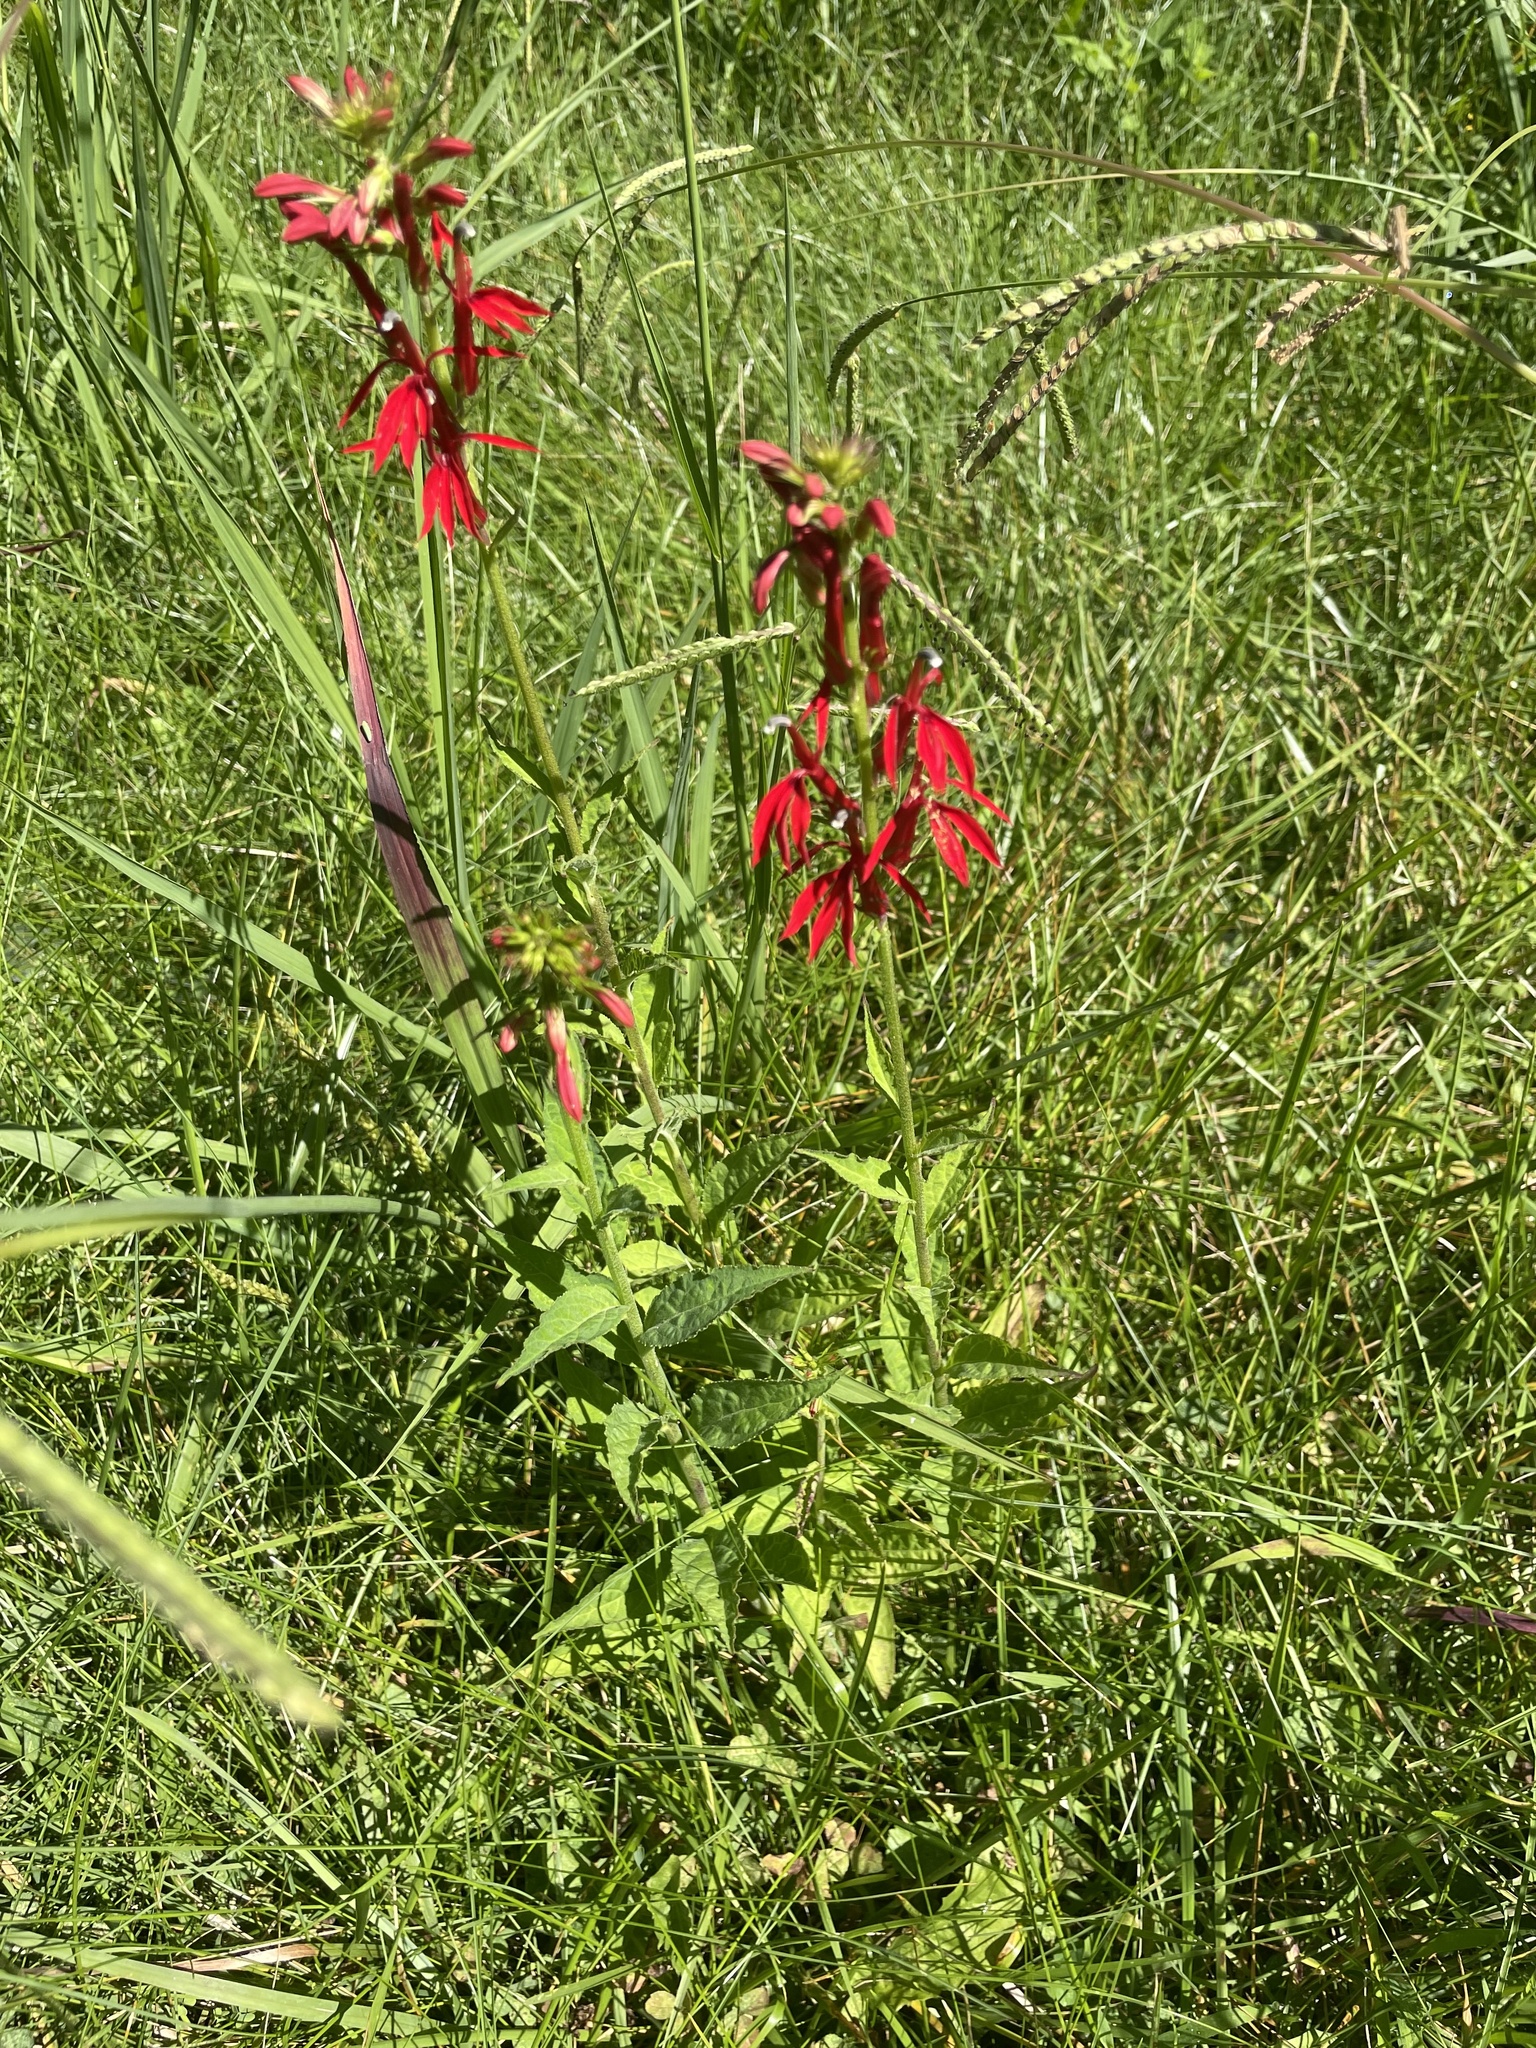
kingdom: Plantae
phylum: Tracheophyta
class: Magnoliopsida
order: Asterales
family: Campanulaceae
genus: Lobelia
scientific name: Lobelia cardinalis
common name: Cardinal flower
